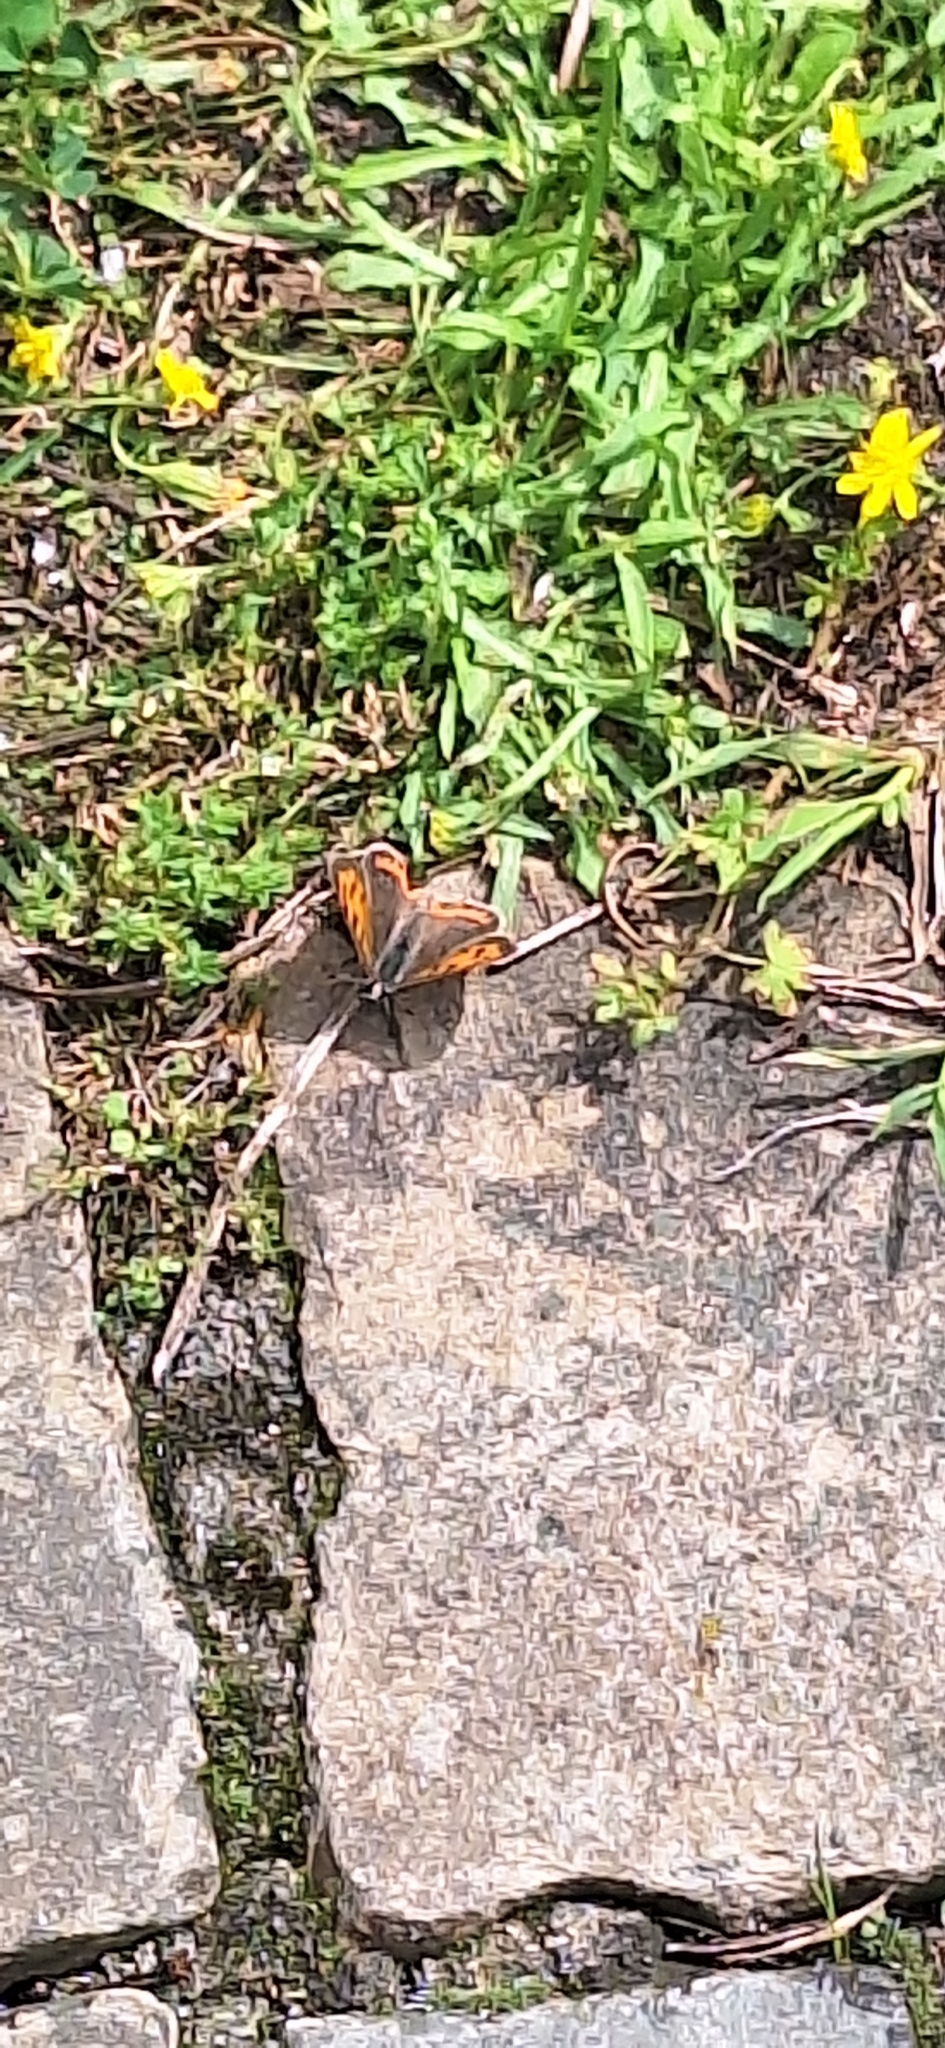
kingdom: Animalia
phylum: Arthropoda
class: Insecta
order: Lepidoptera
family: Lycaenidae
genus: Lycaena
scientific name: Lycaena phlaeas
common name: Small copper
